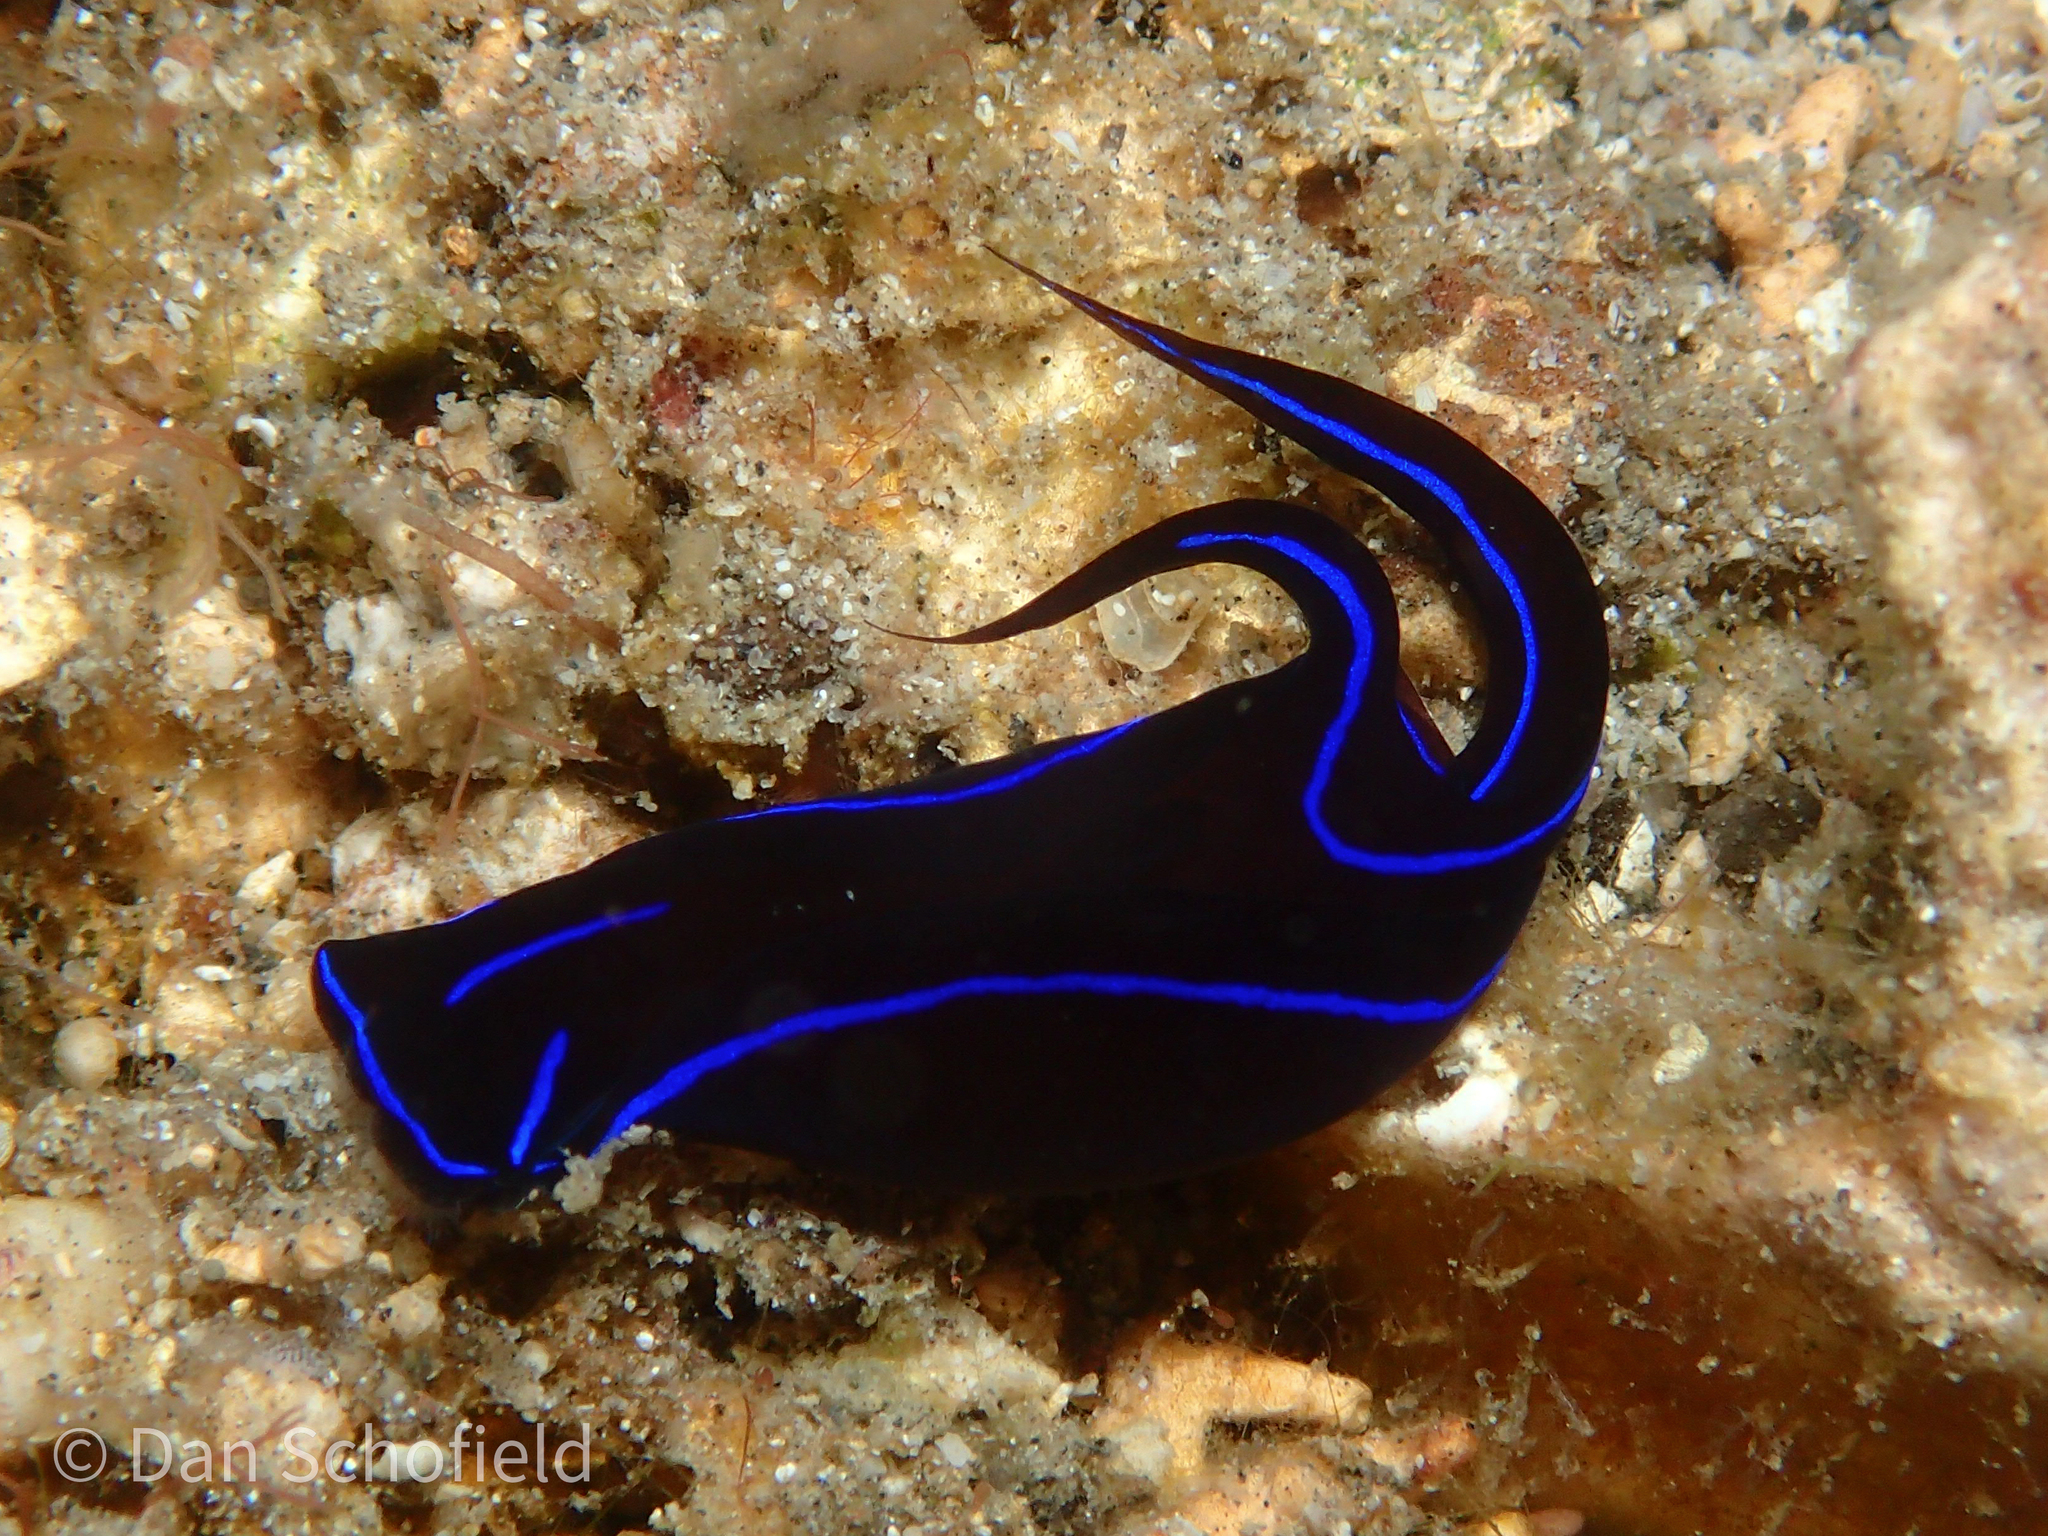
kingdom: Animalia
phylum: Mollusca
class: Gastropoda
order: Cephalaspidea
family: Aglajidae
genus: Chelidonura
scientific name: Chelidonura varians
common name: Blue velvet headshield slug
